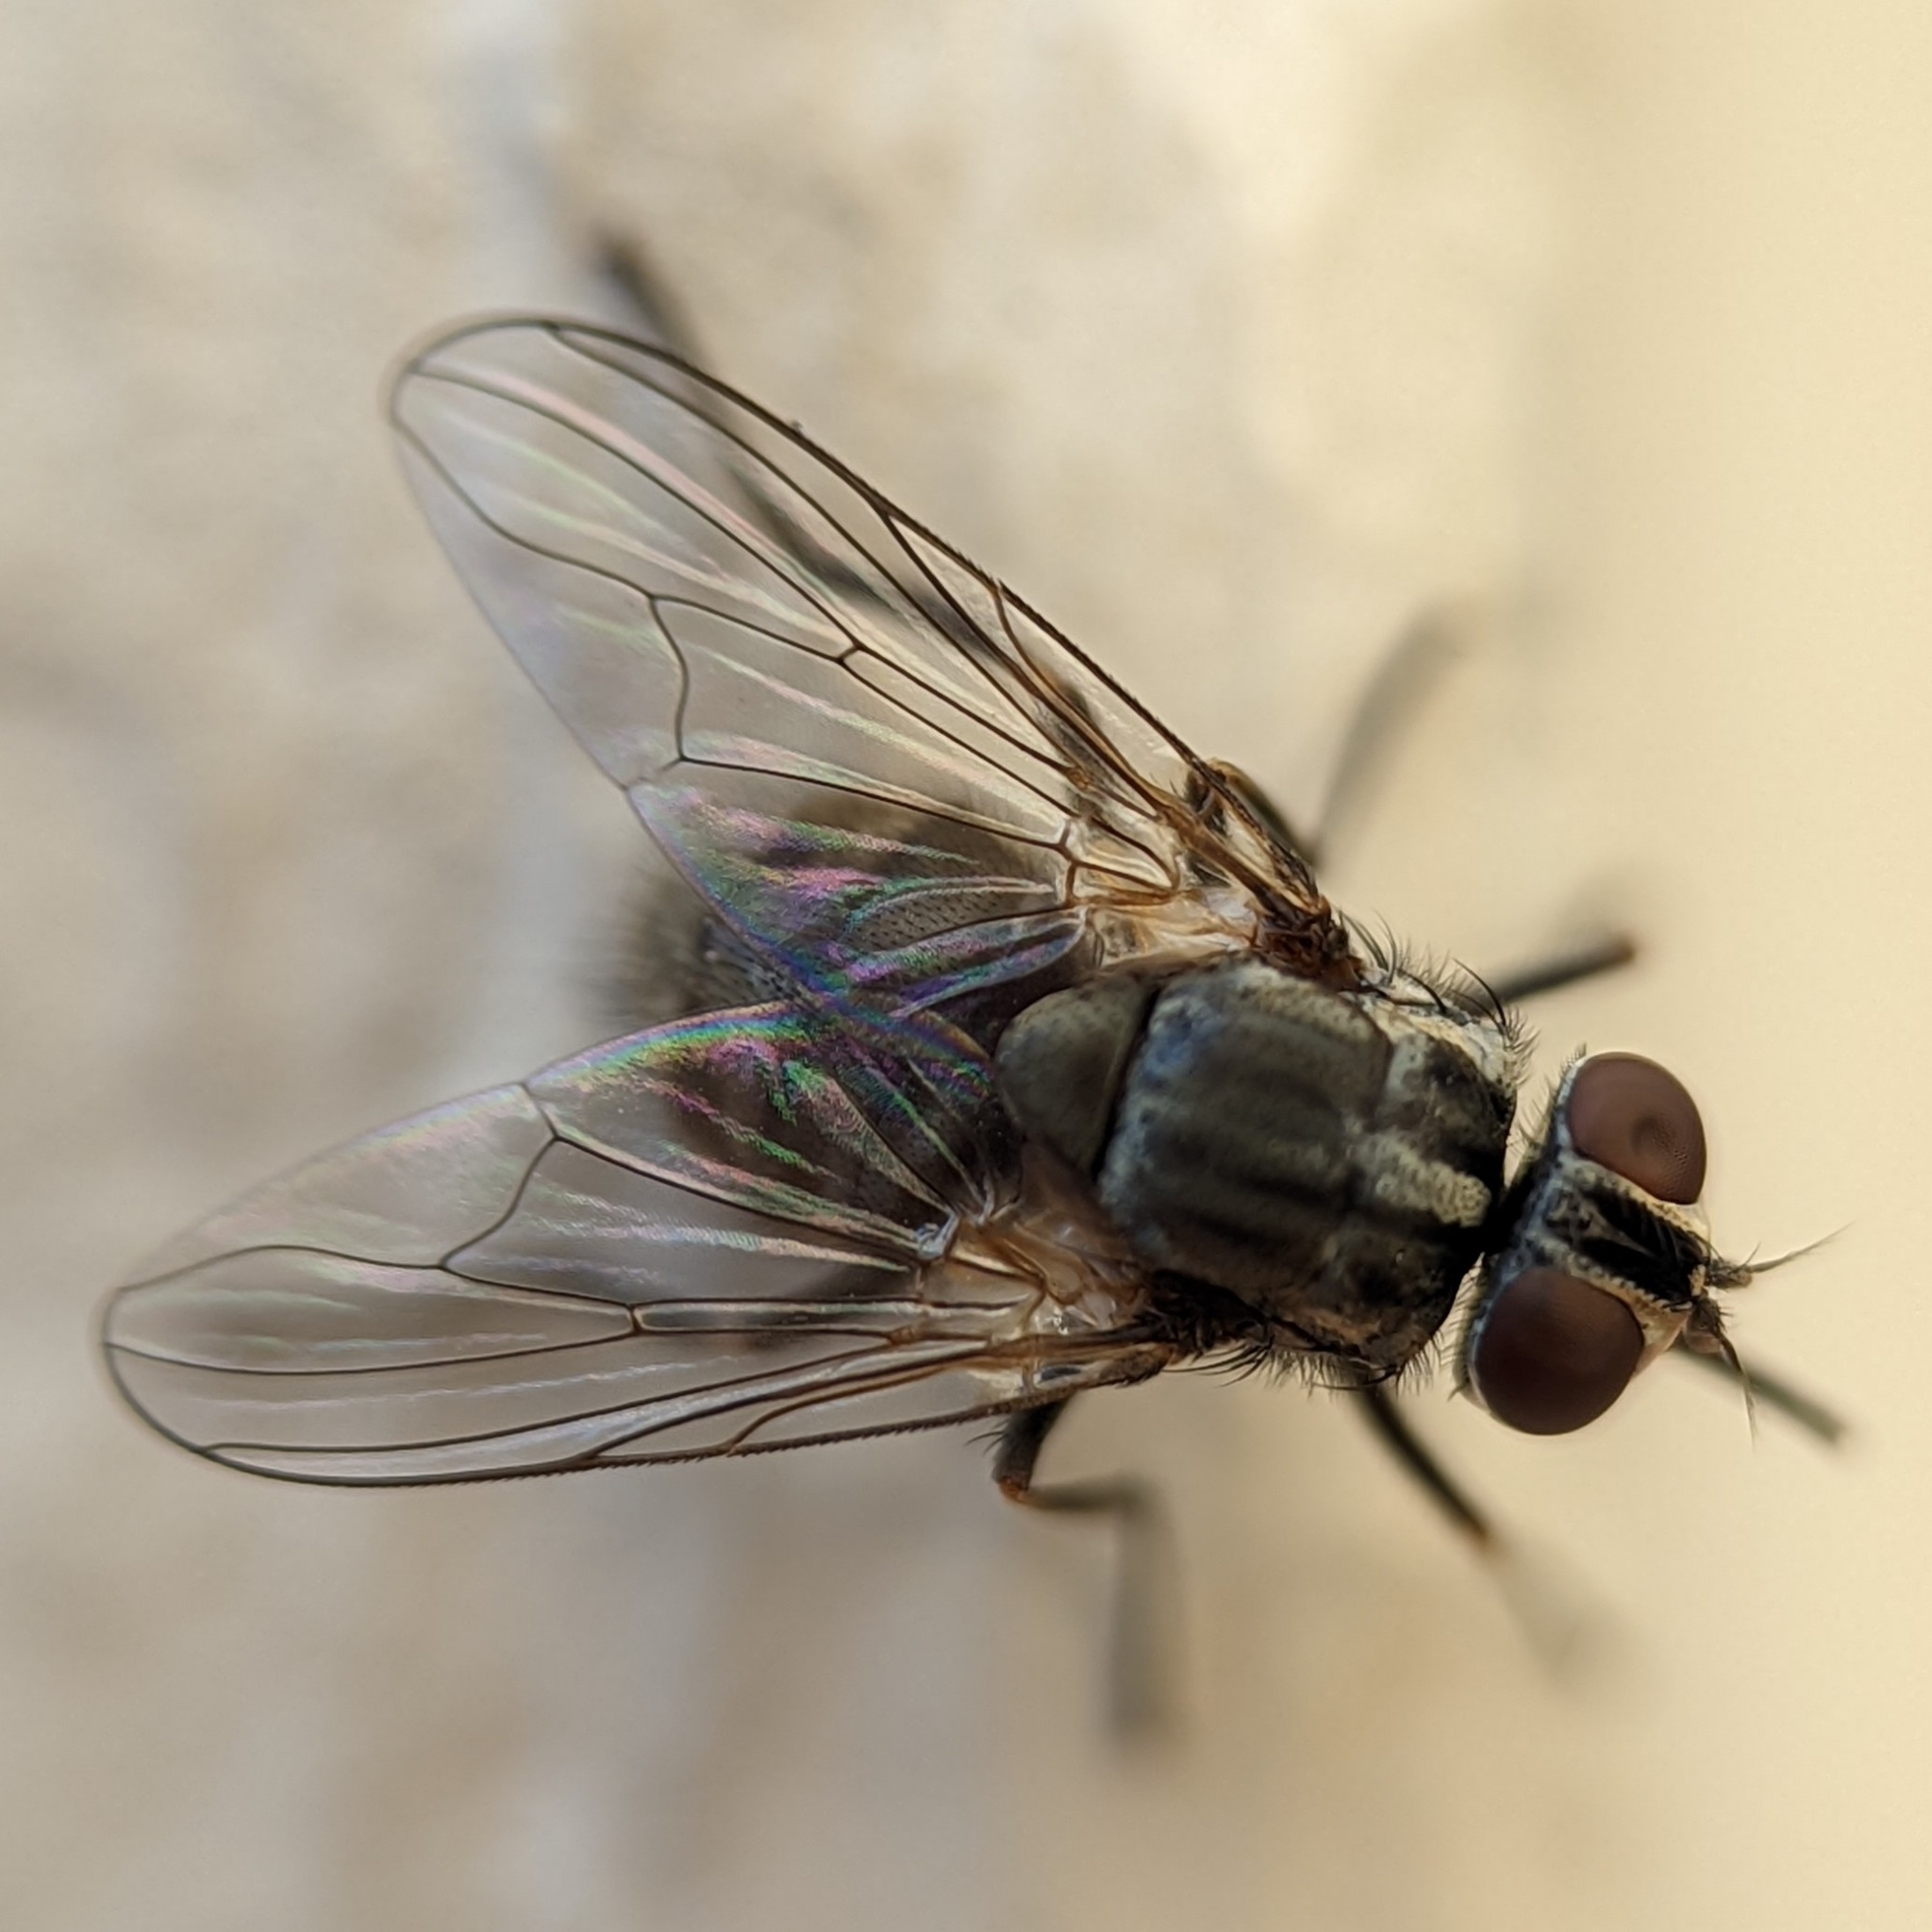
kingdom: Animalia
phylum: Arthropoda
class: Insecta
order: Diptera
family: Muscidae
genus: Stomoxys
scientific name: Stomoxys calcitrans
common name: Stable fly
